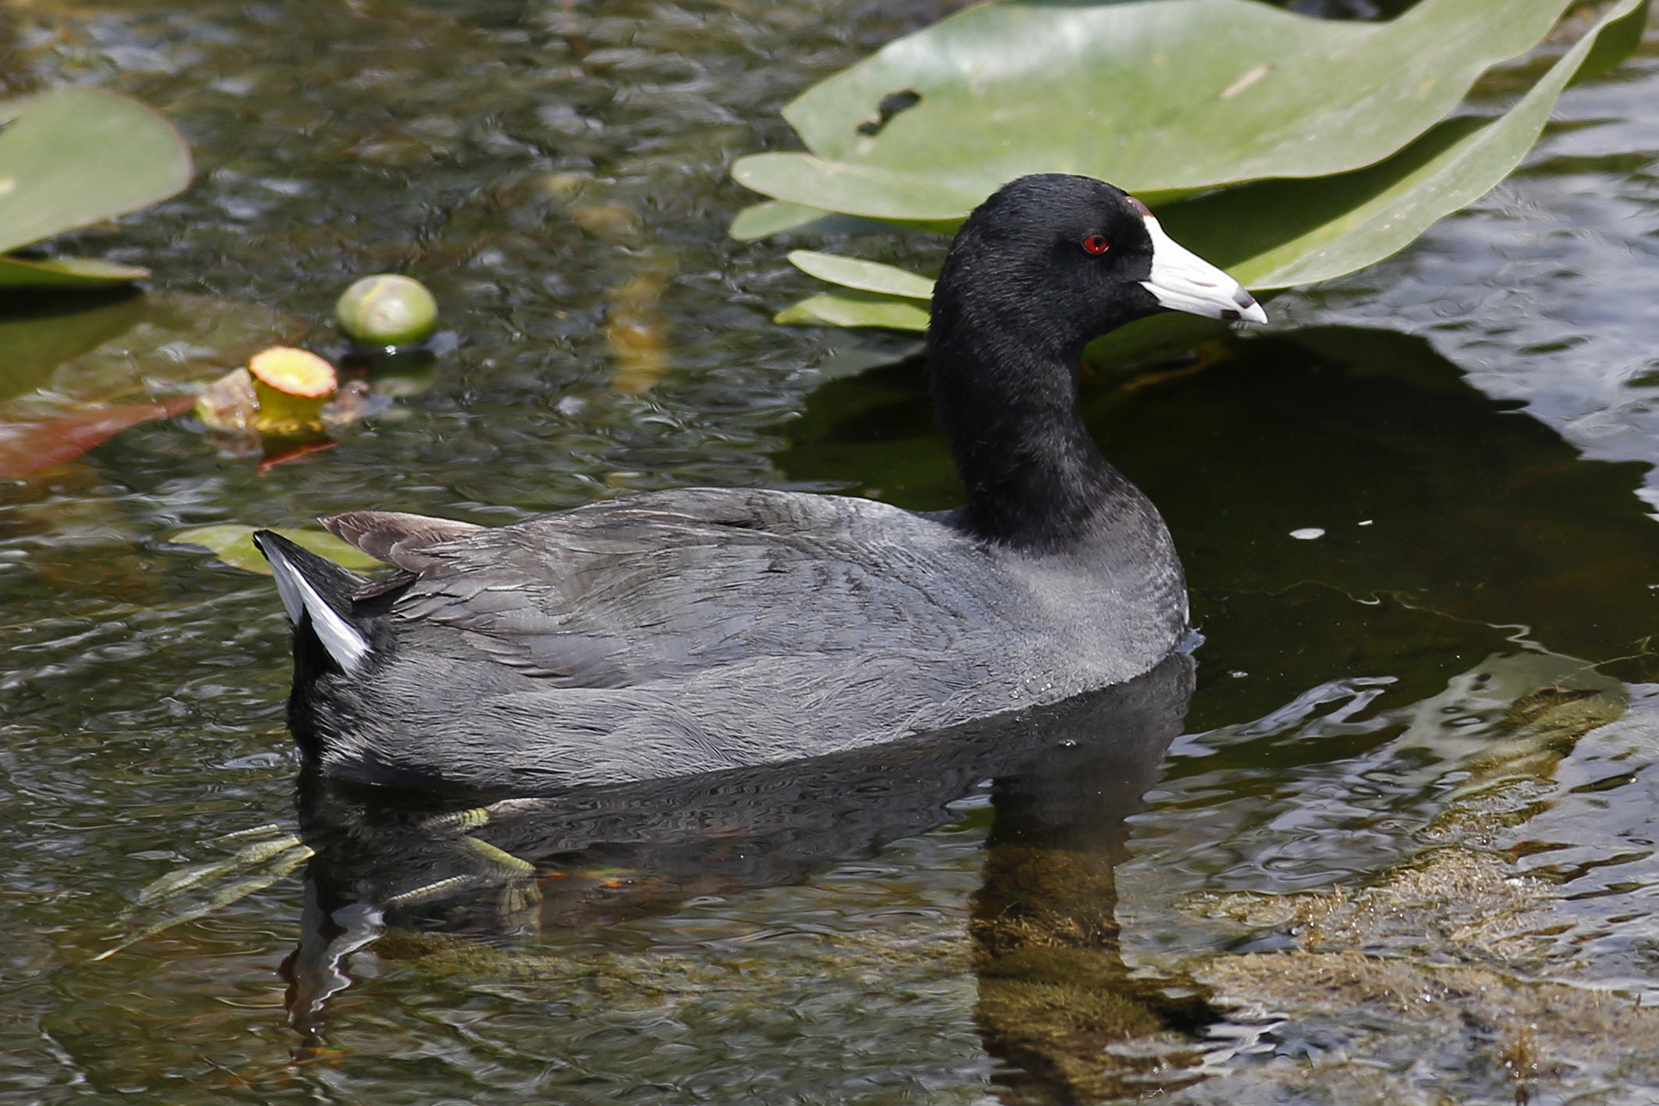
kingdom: Animalia
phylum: Chordata
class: Aves
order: Gruiformes
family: Rallidae
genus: Fulica
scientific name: Fulica americana
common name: American coot
